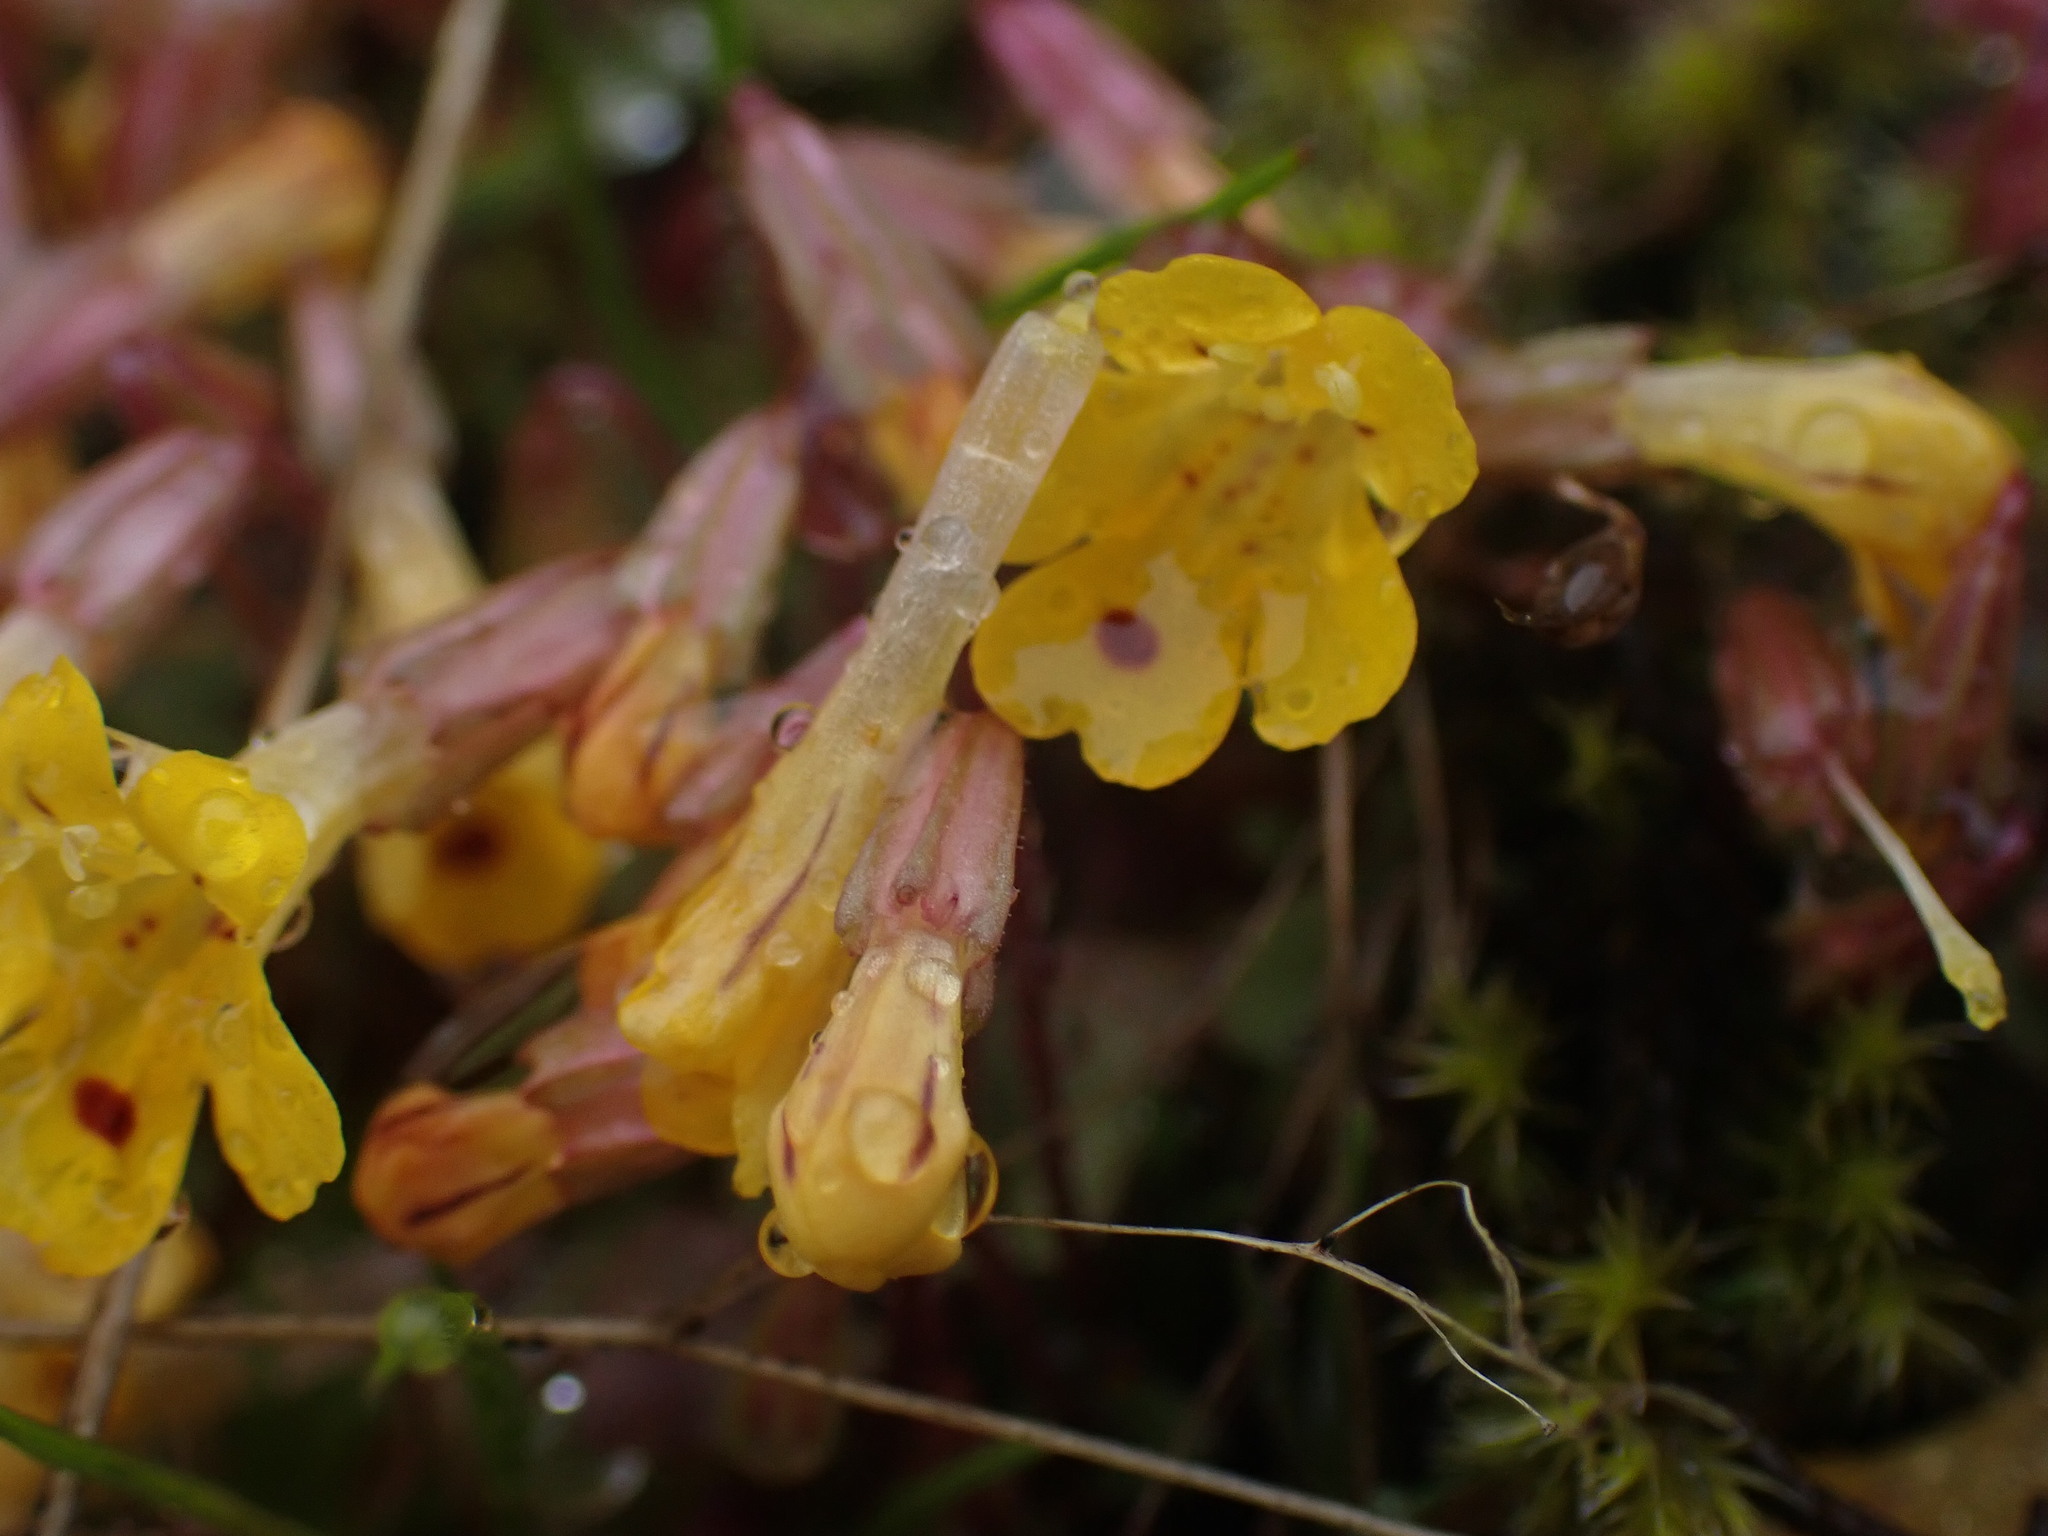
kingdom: Plantae
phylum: Tracheophyta
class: Magnoliopsida
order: Lamiales
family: Phrymaceae
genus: Erythranthe
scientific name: Erythranthe alsinoides
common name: Chickweed monkeyflower
